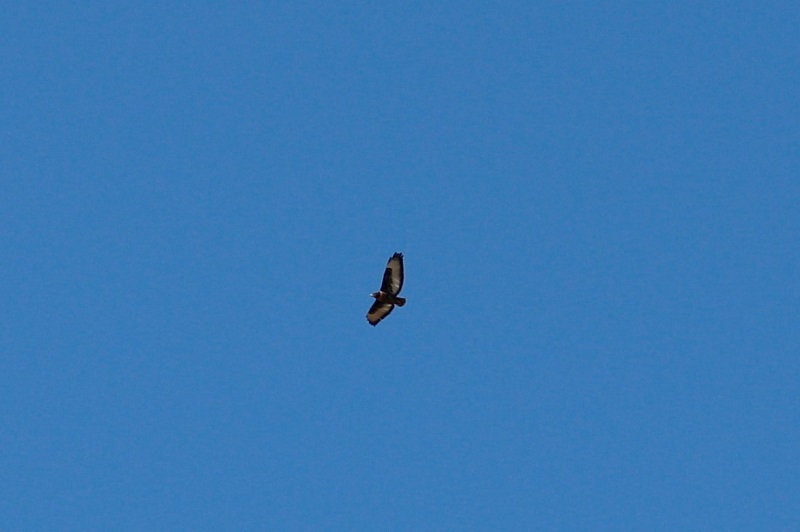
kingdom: Animalia
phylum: Chordata
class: Aves
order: Accipitriformes
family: Accipitridae
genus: Buteo
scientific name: Buteo rufofuscus
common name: Jackal buzzard
